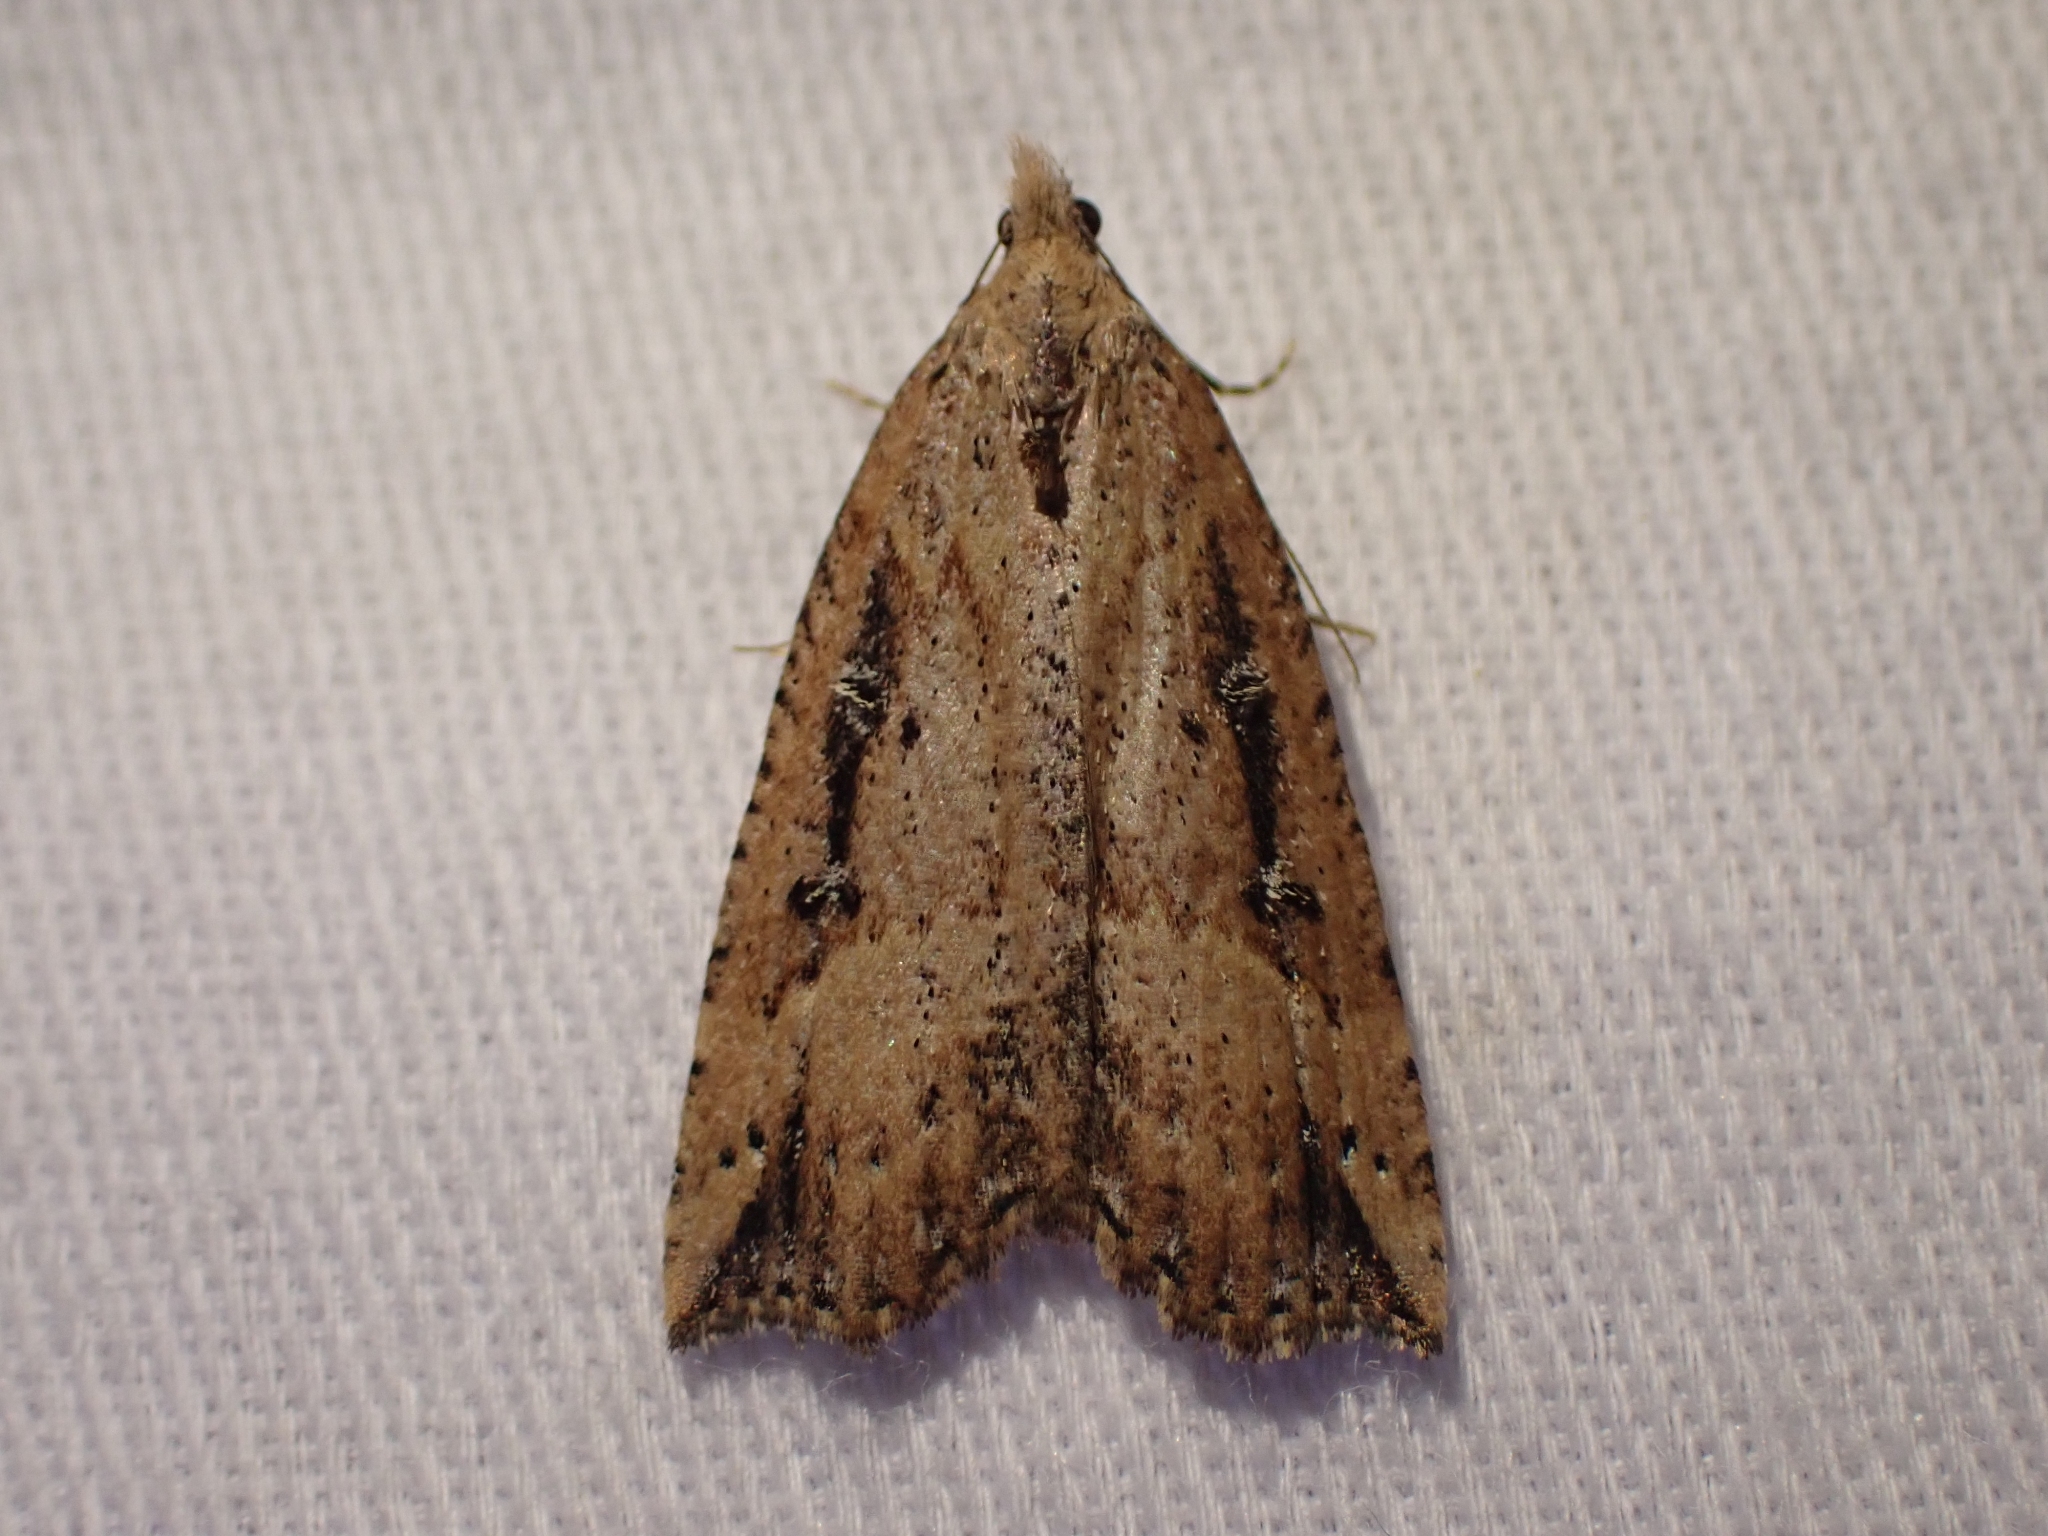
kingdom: Animalia
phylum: Arthropoda
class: Insecta
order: Lepidoptera
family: Erebidae
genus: Hypena
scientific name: Hypena californica
